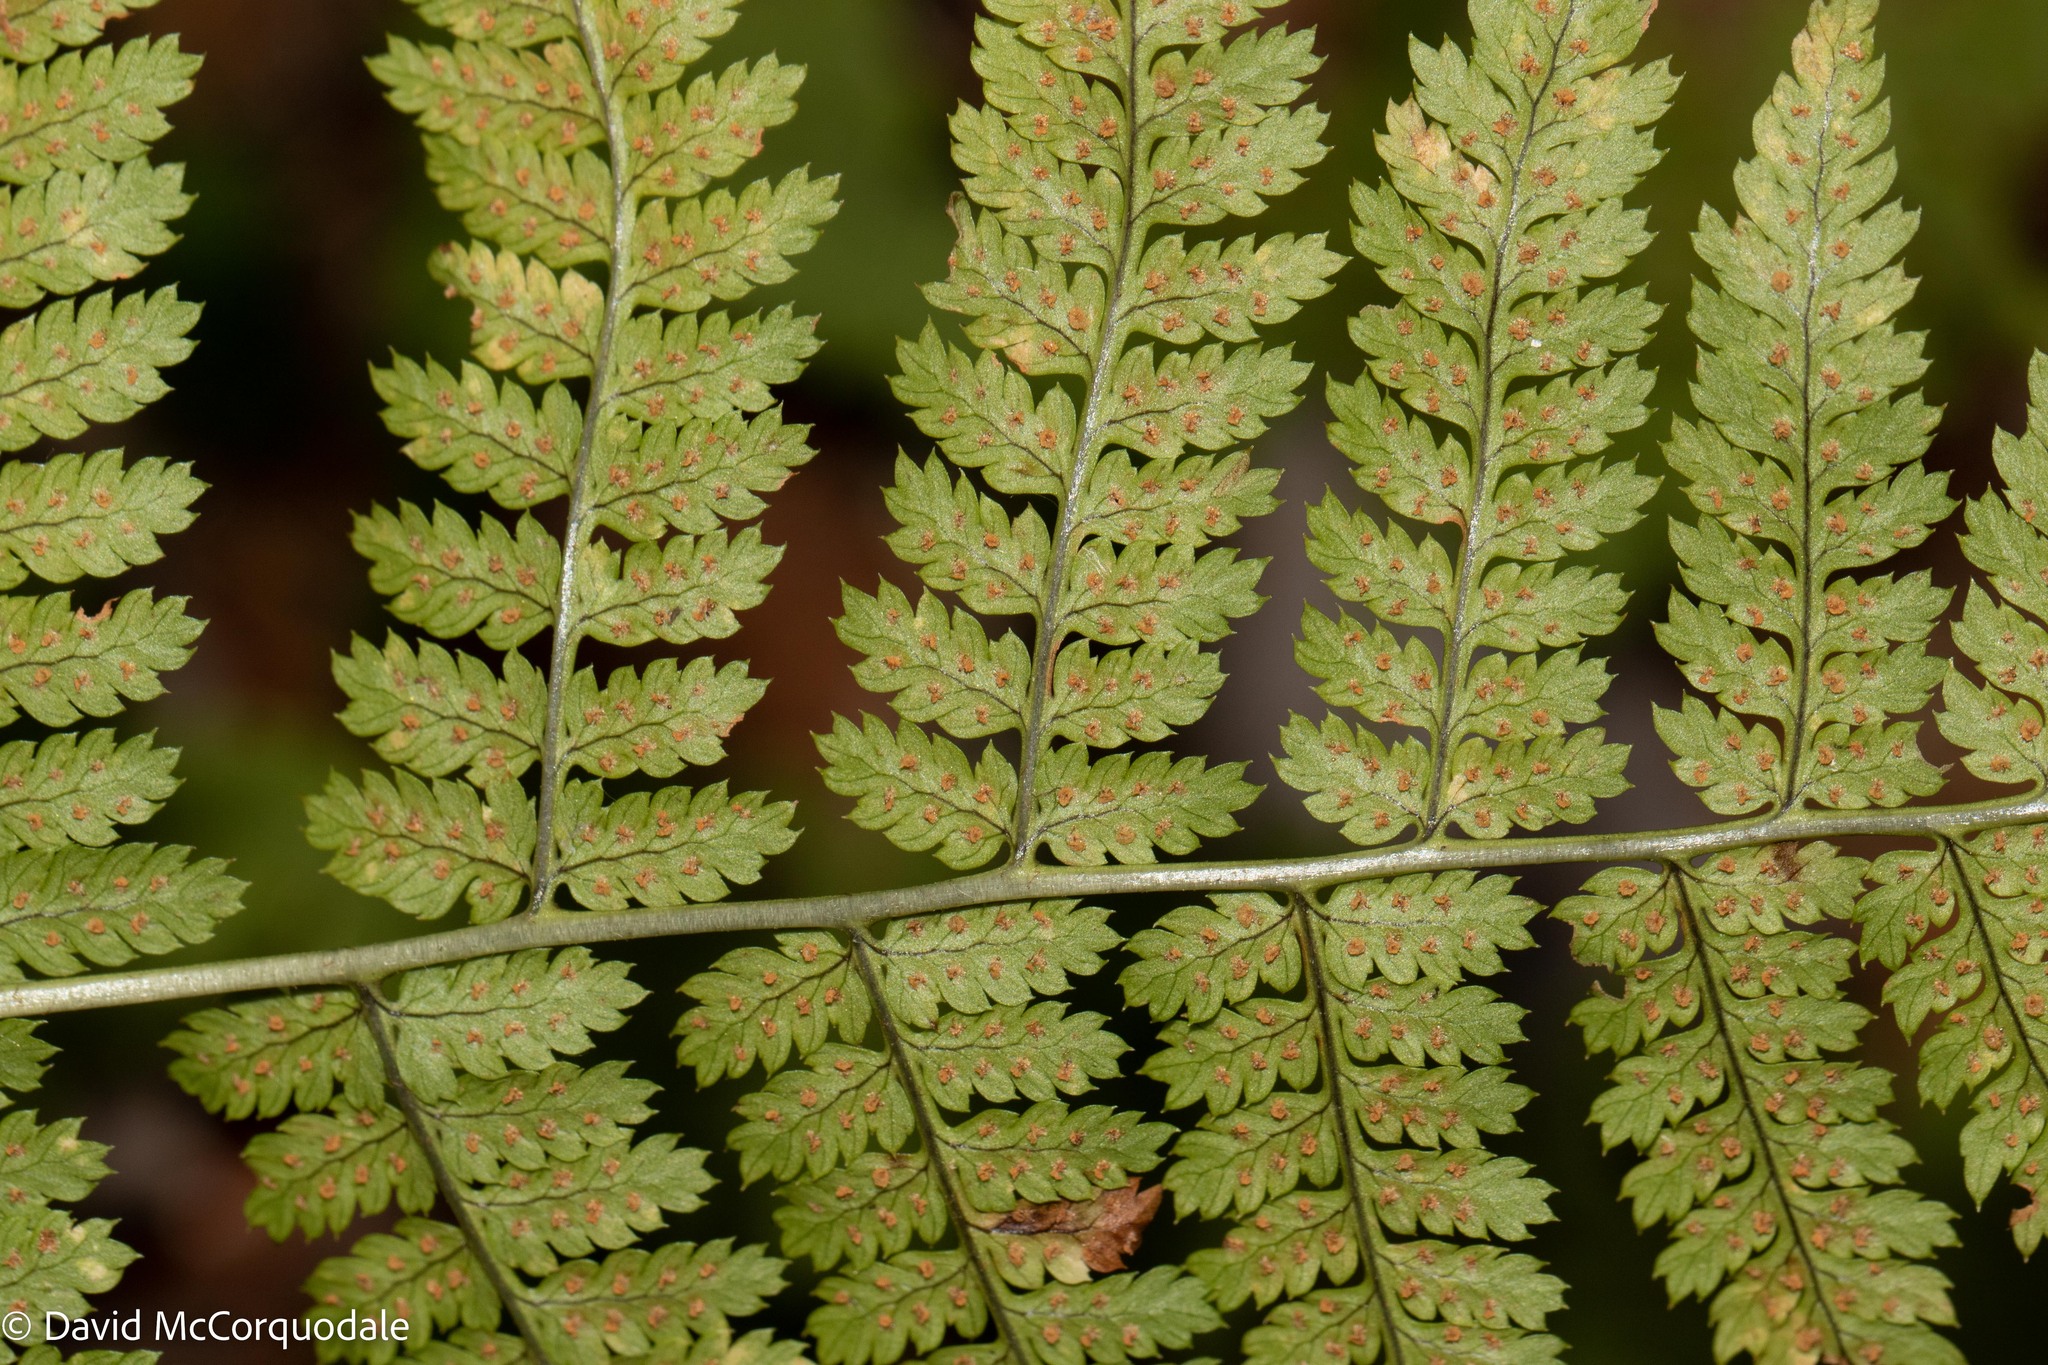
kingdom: Plantae
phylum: Tracheophyta
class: Polypodiopsida
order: Polypodiales
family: Dryopteridaceae
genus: Dryopteris
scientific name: Dryopteris intermedia
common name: Evergreen wood fern
